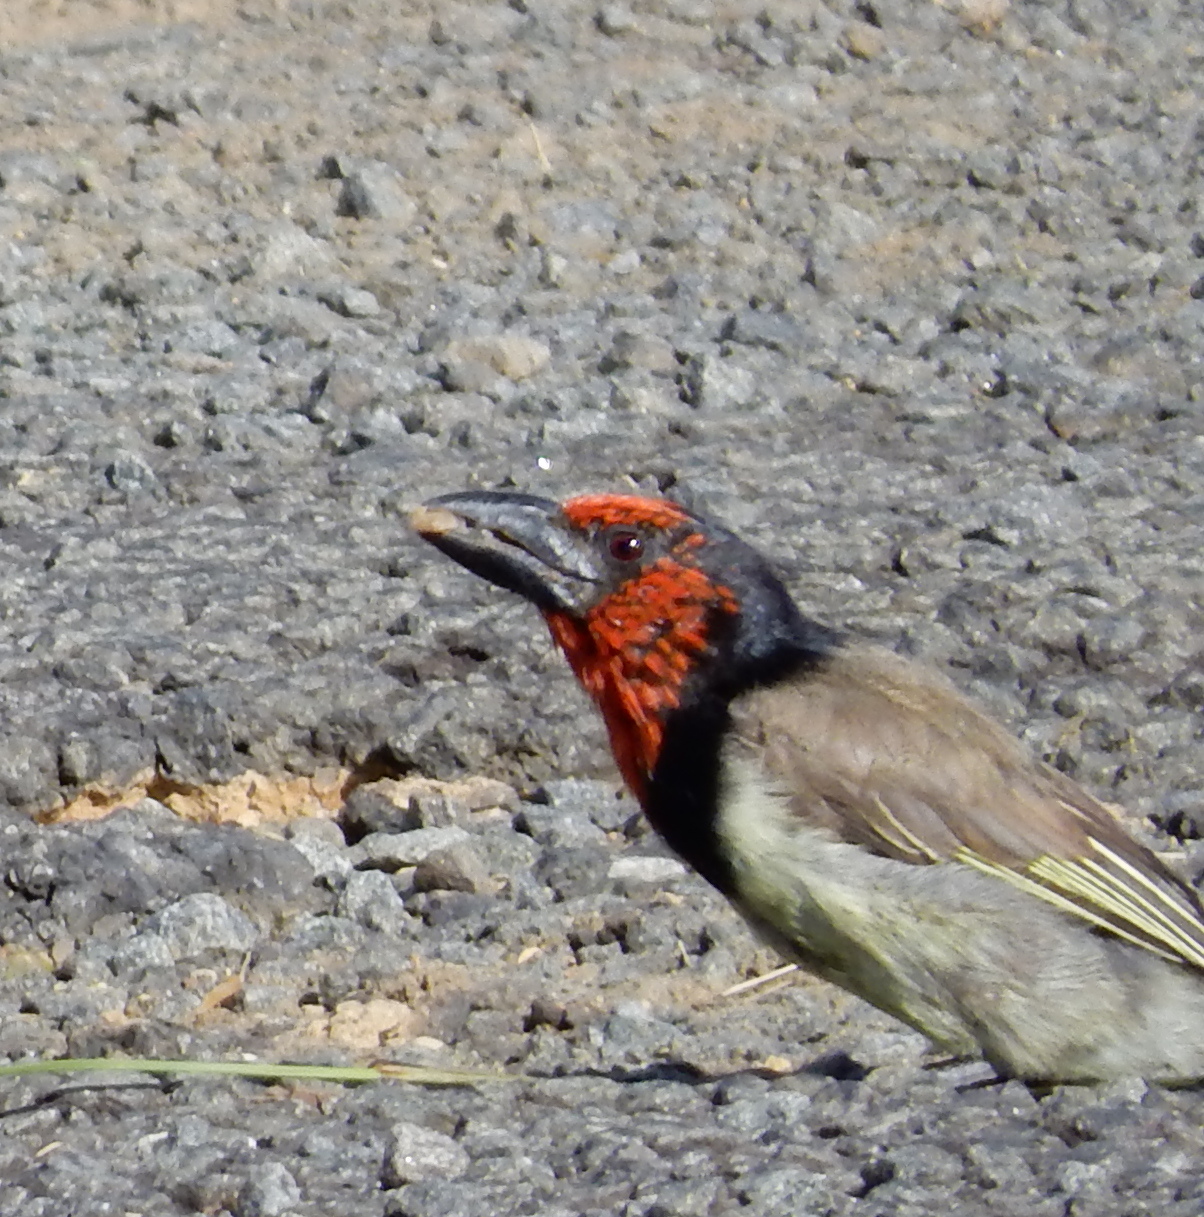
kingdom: Animalia
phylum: Chordata
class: Aves
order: Piciformes
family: Lybiidae
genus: Lybius
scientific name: Lybius torquatus
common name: Black-collared barbet
